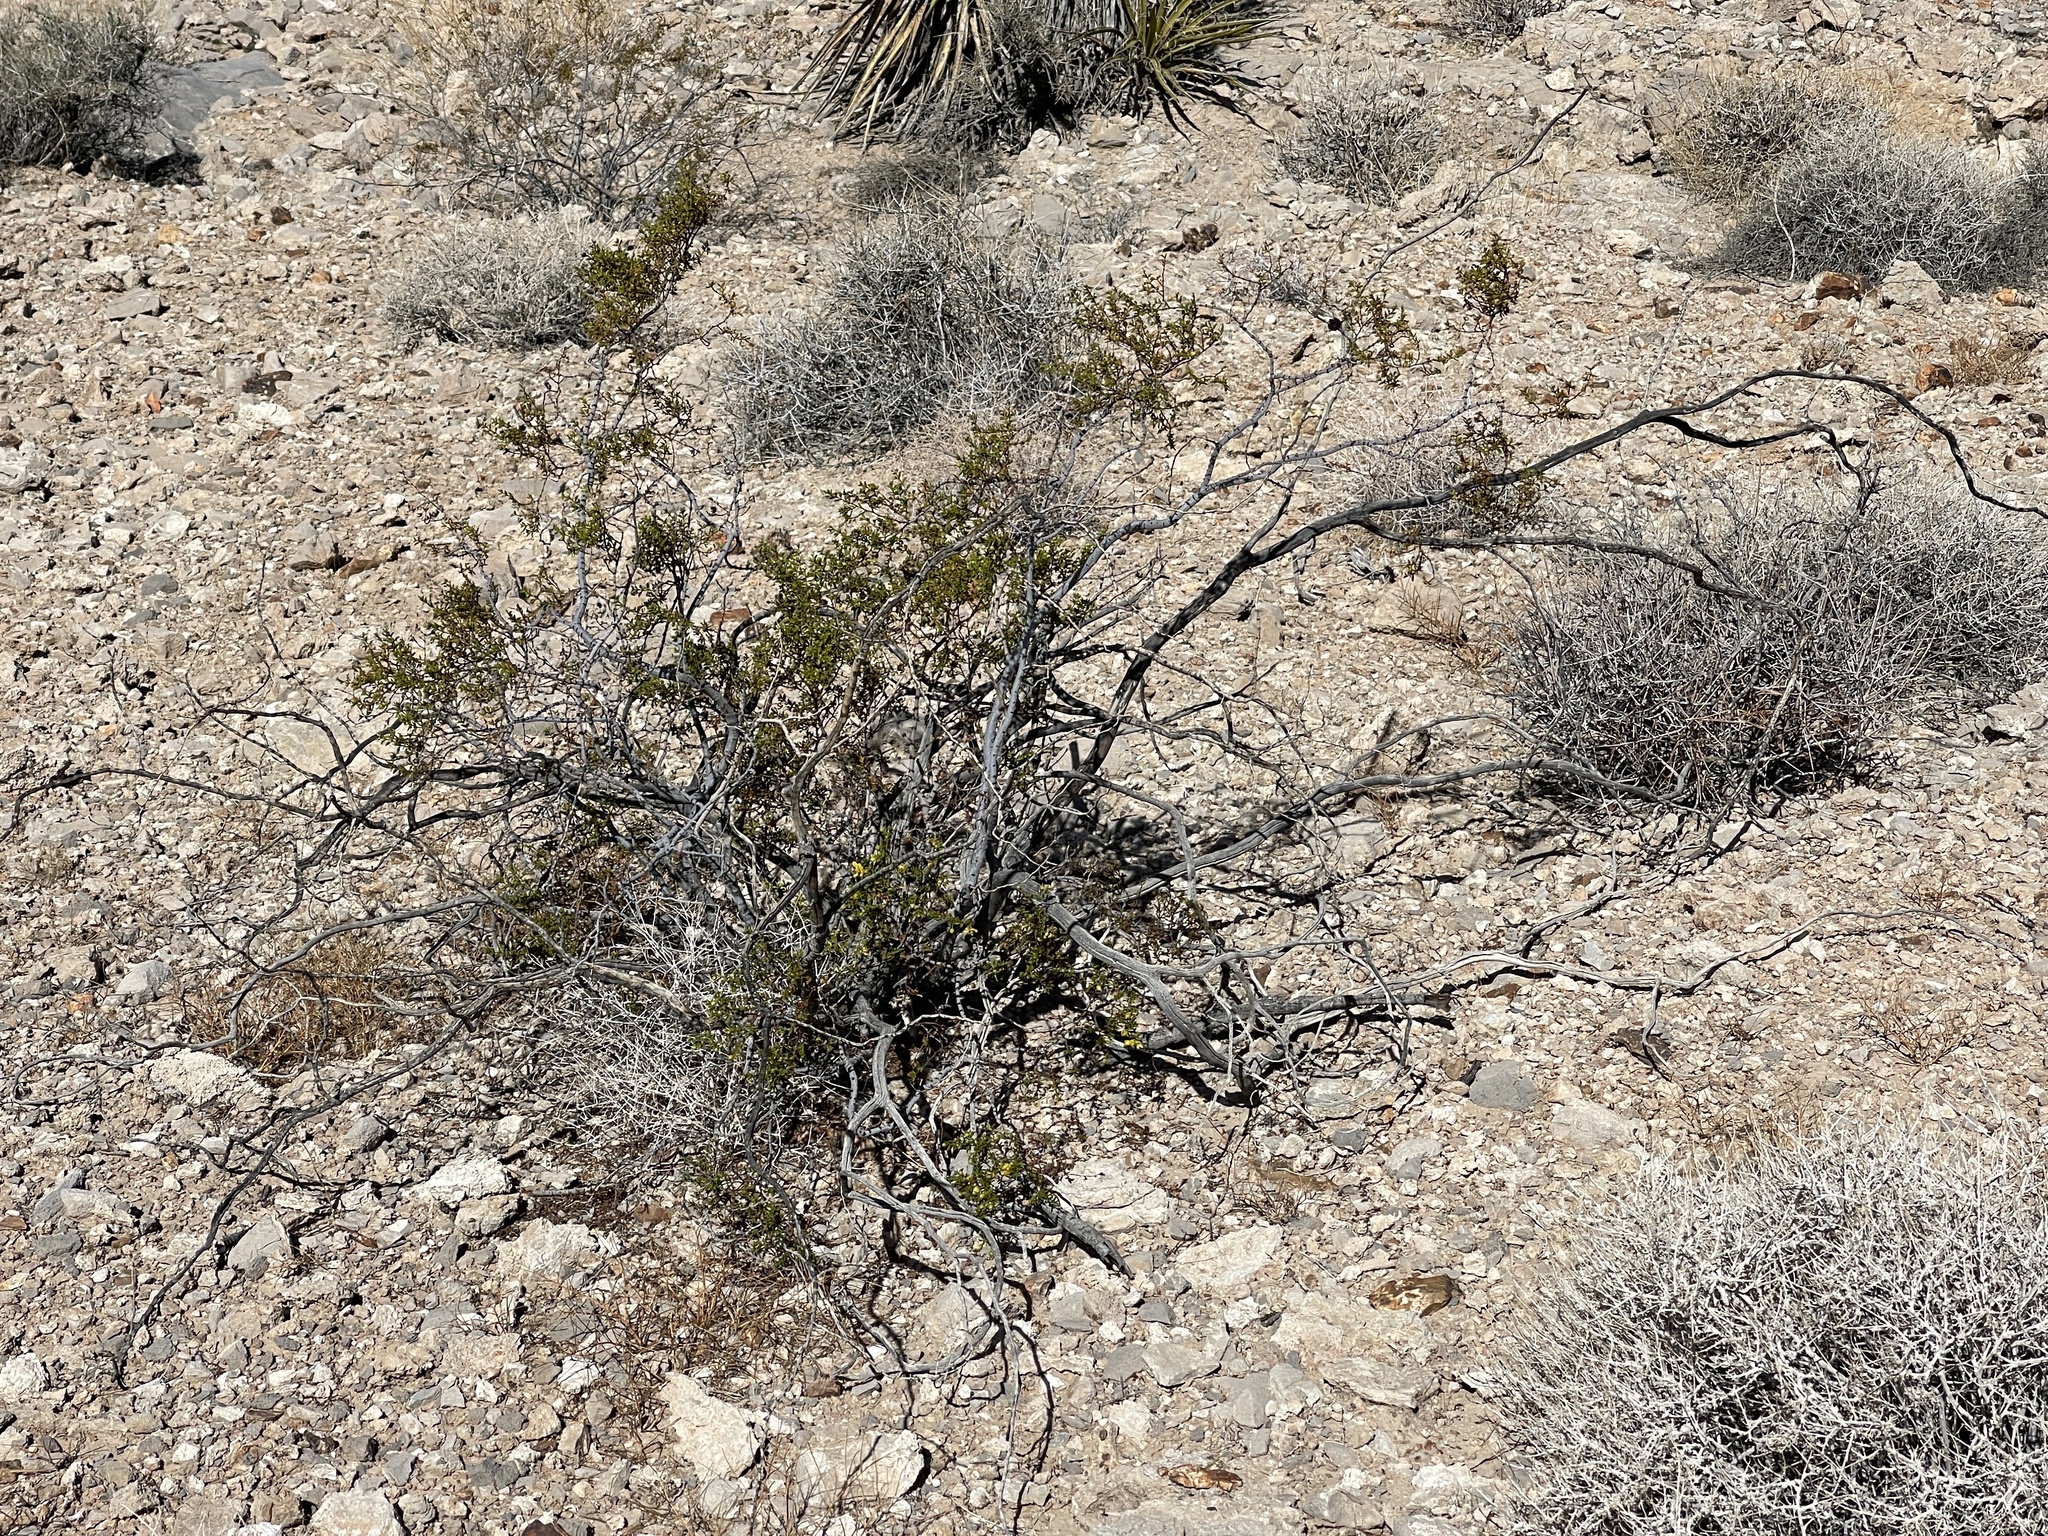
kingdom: Plantae
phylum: Tracheophyta
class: Magnoliopsida
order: Zygophyllales
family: Zygophyllaceae
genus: Larrea
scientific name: Larrea tridentata
